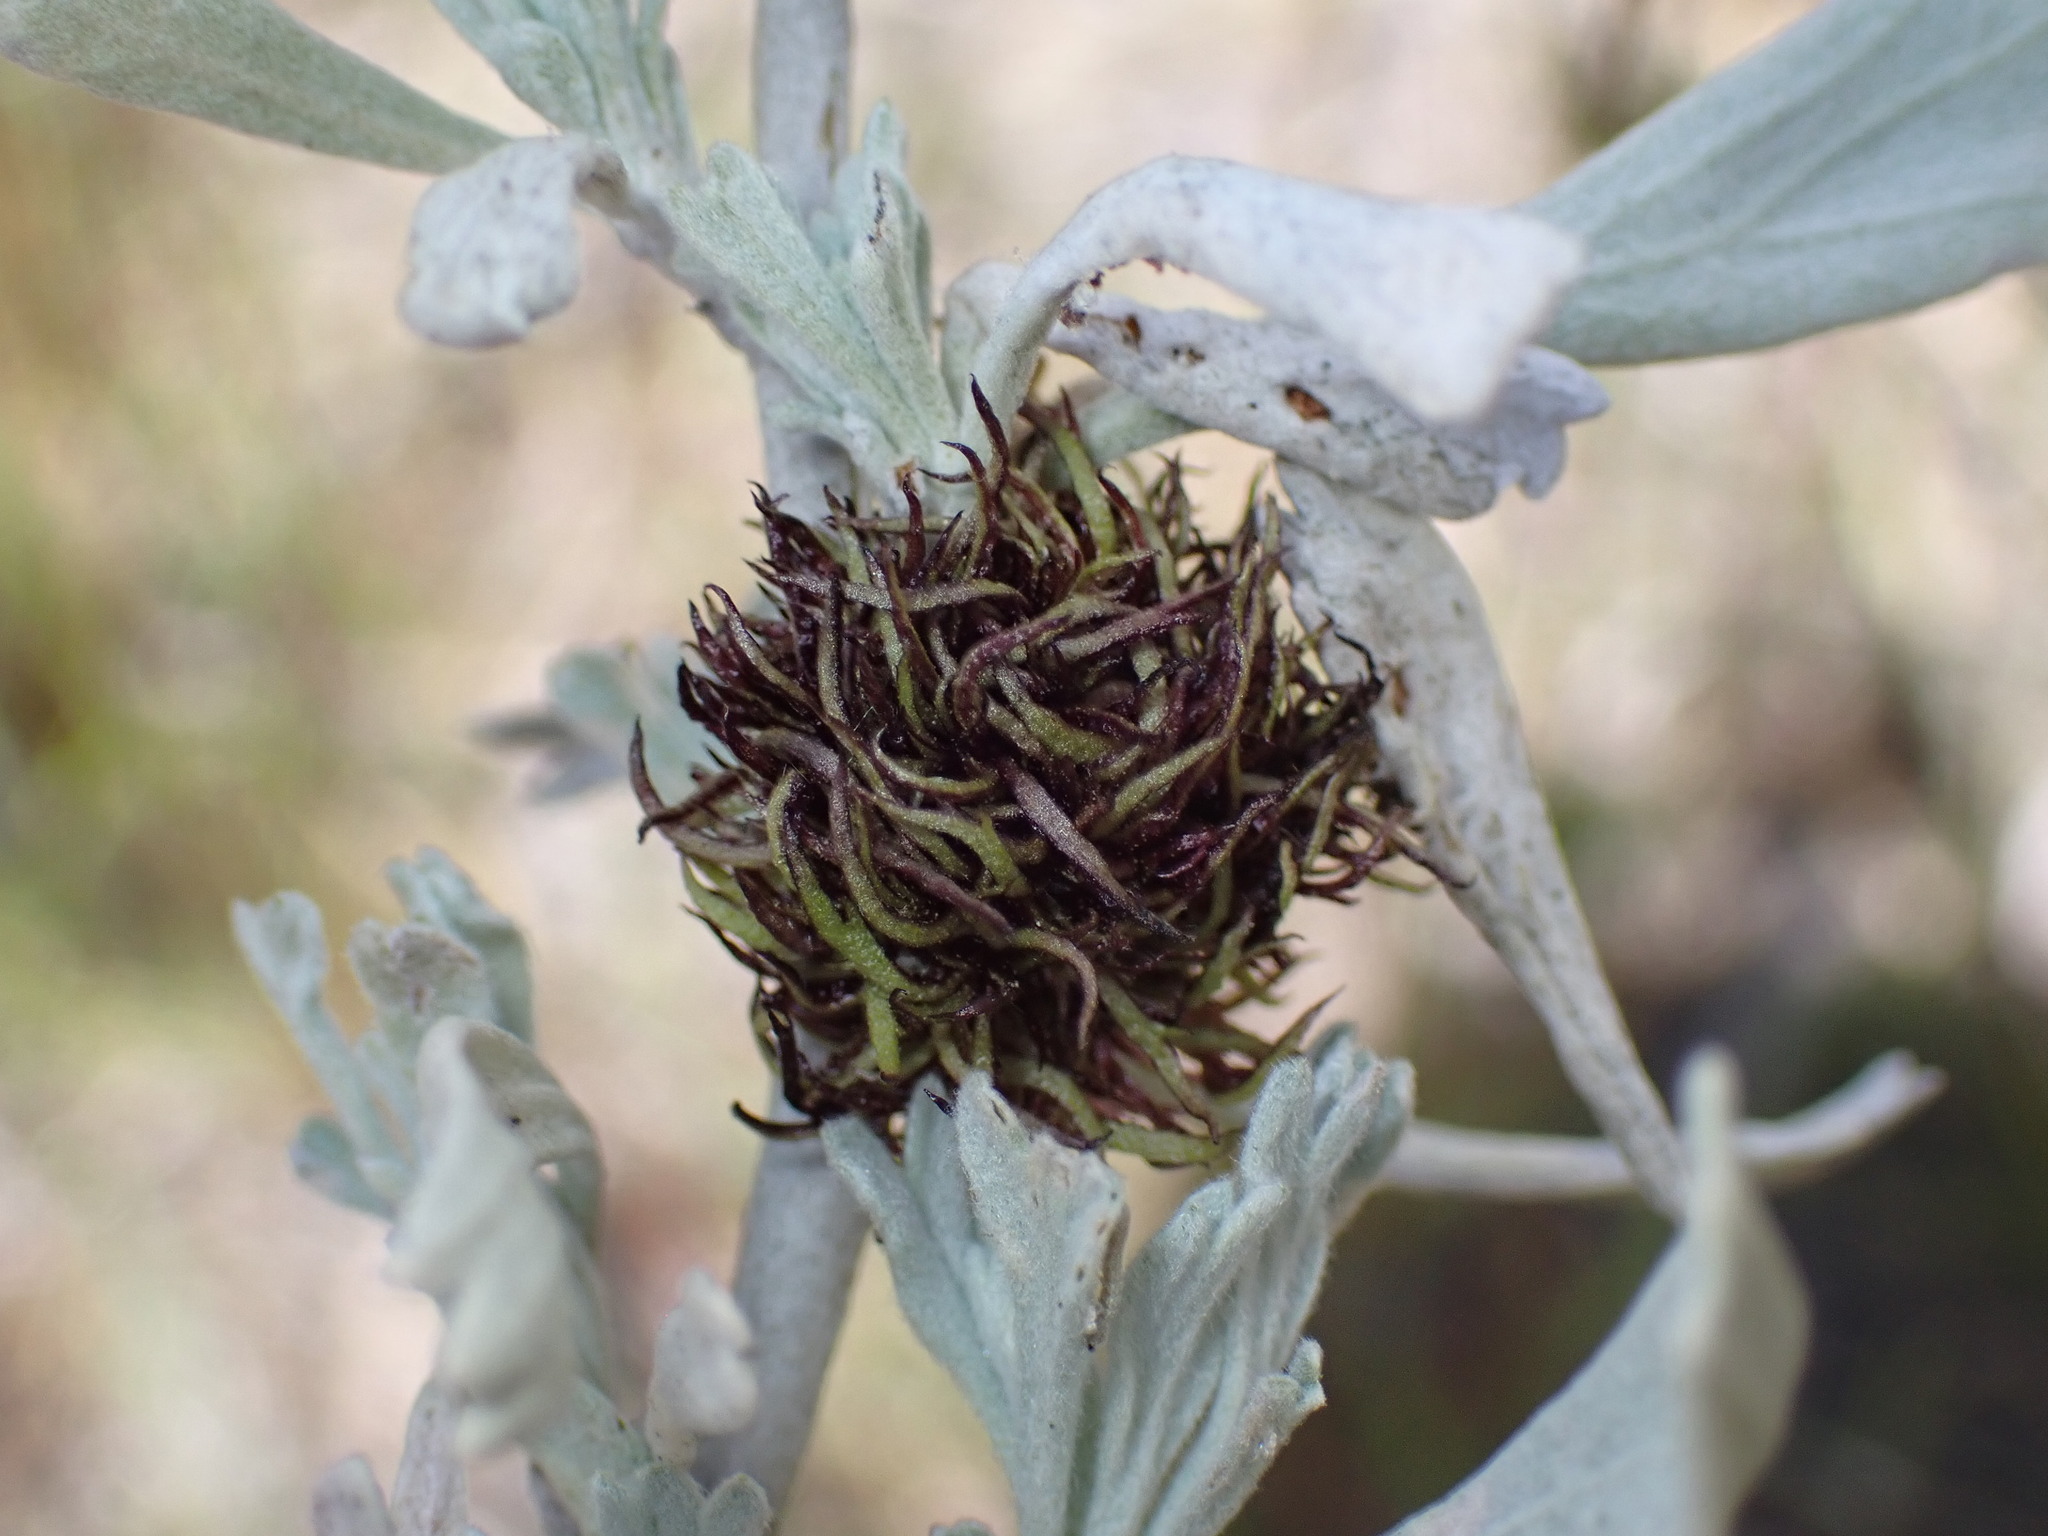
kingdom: Animalia
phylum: Arthropoda
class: Insecta
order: Diptera
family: Cecidomyiidae
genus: Rhopalomyia
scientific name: Rhopalomyia medusa
